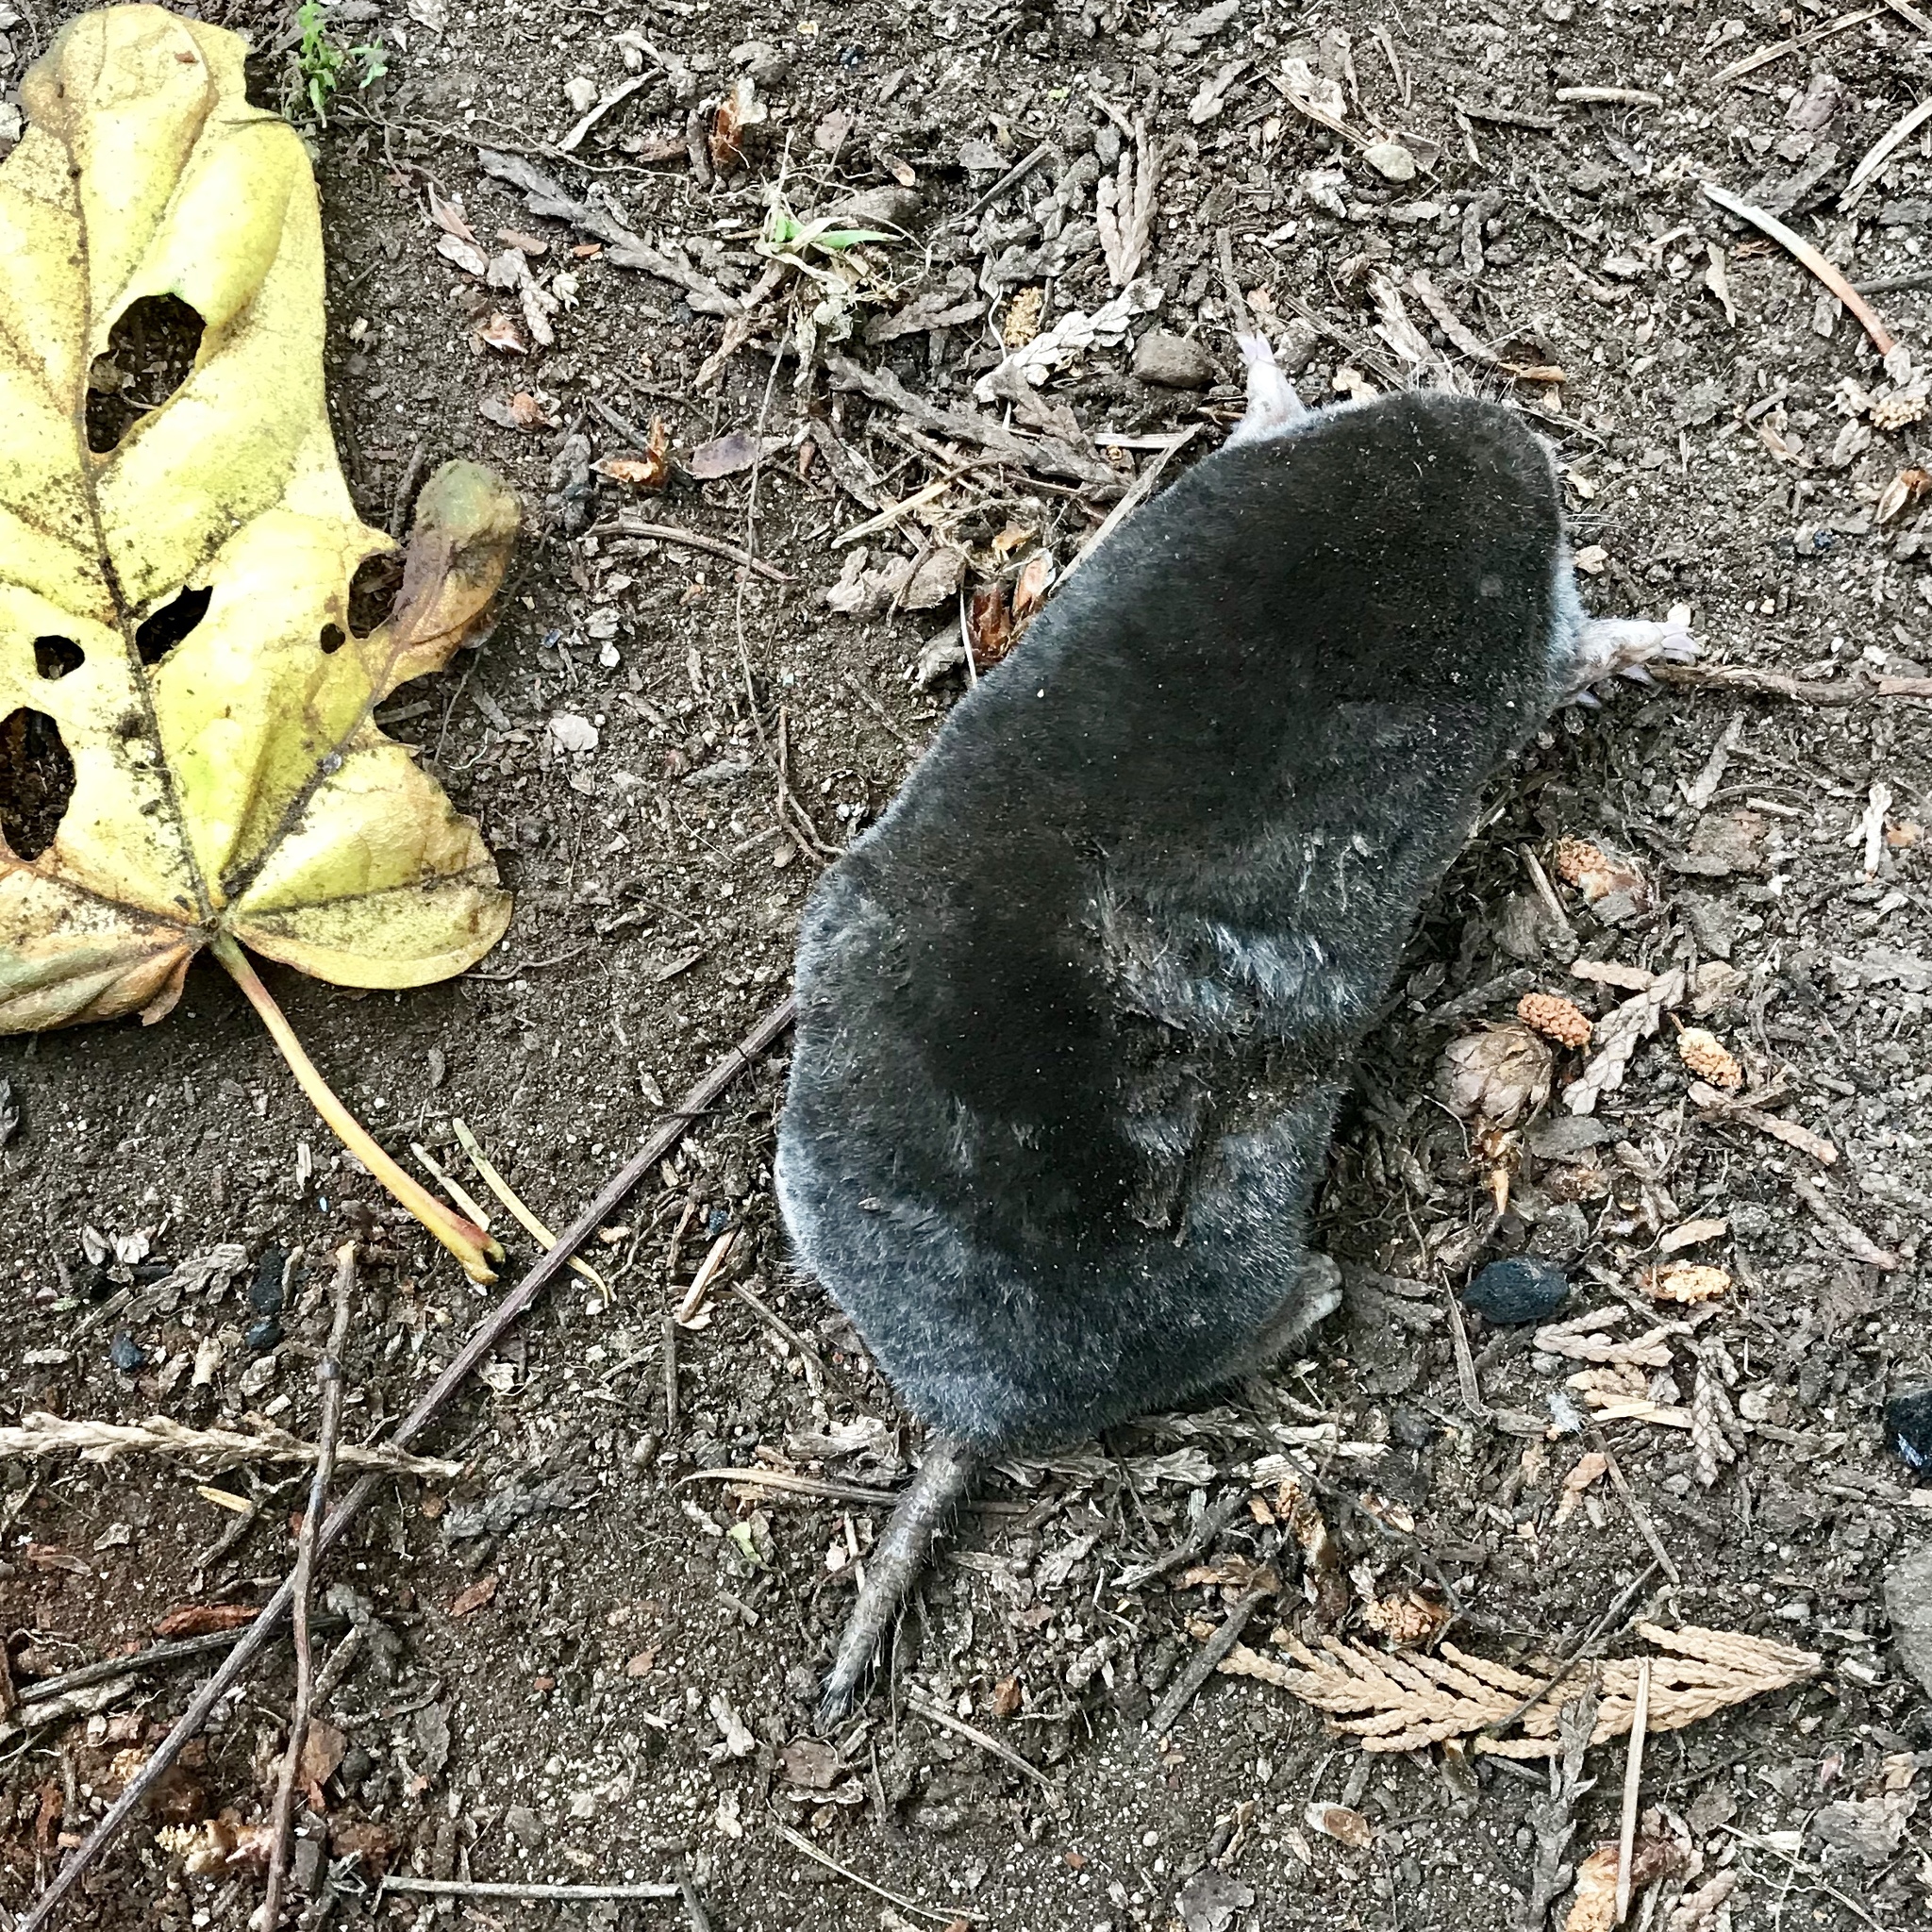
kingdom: Animalia
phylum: Chordata
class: Mammalia
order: Soricomorpha
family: Talpidae
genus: Scapanus
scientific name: Scapanus orarius
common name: Coast mole
